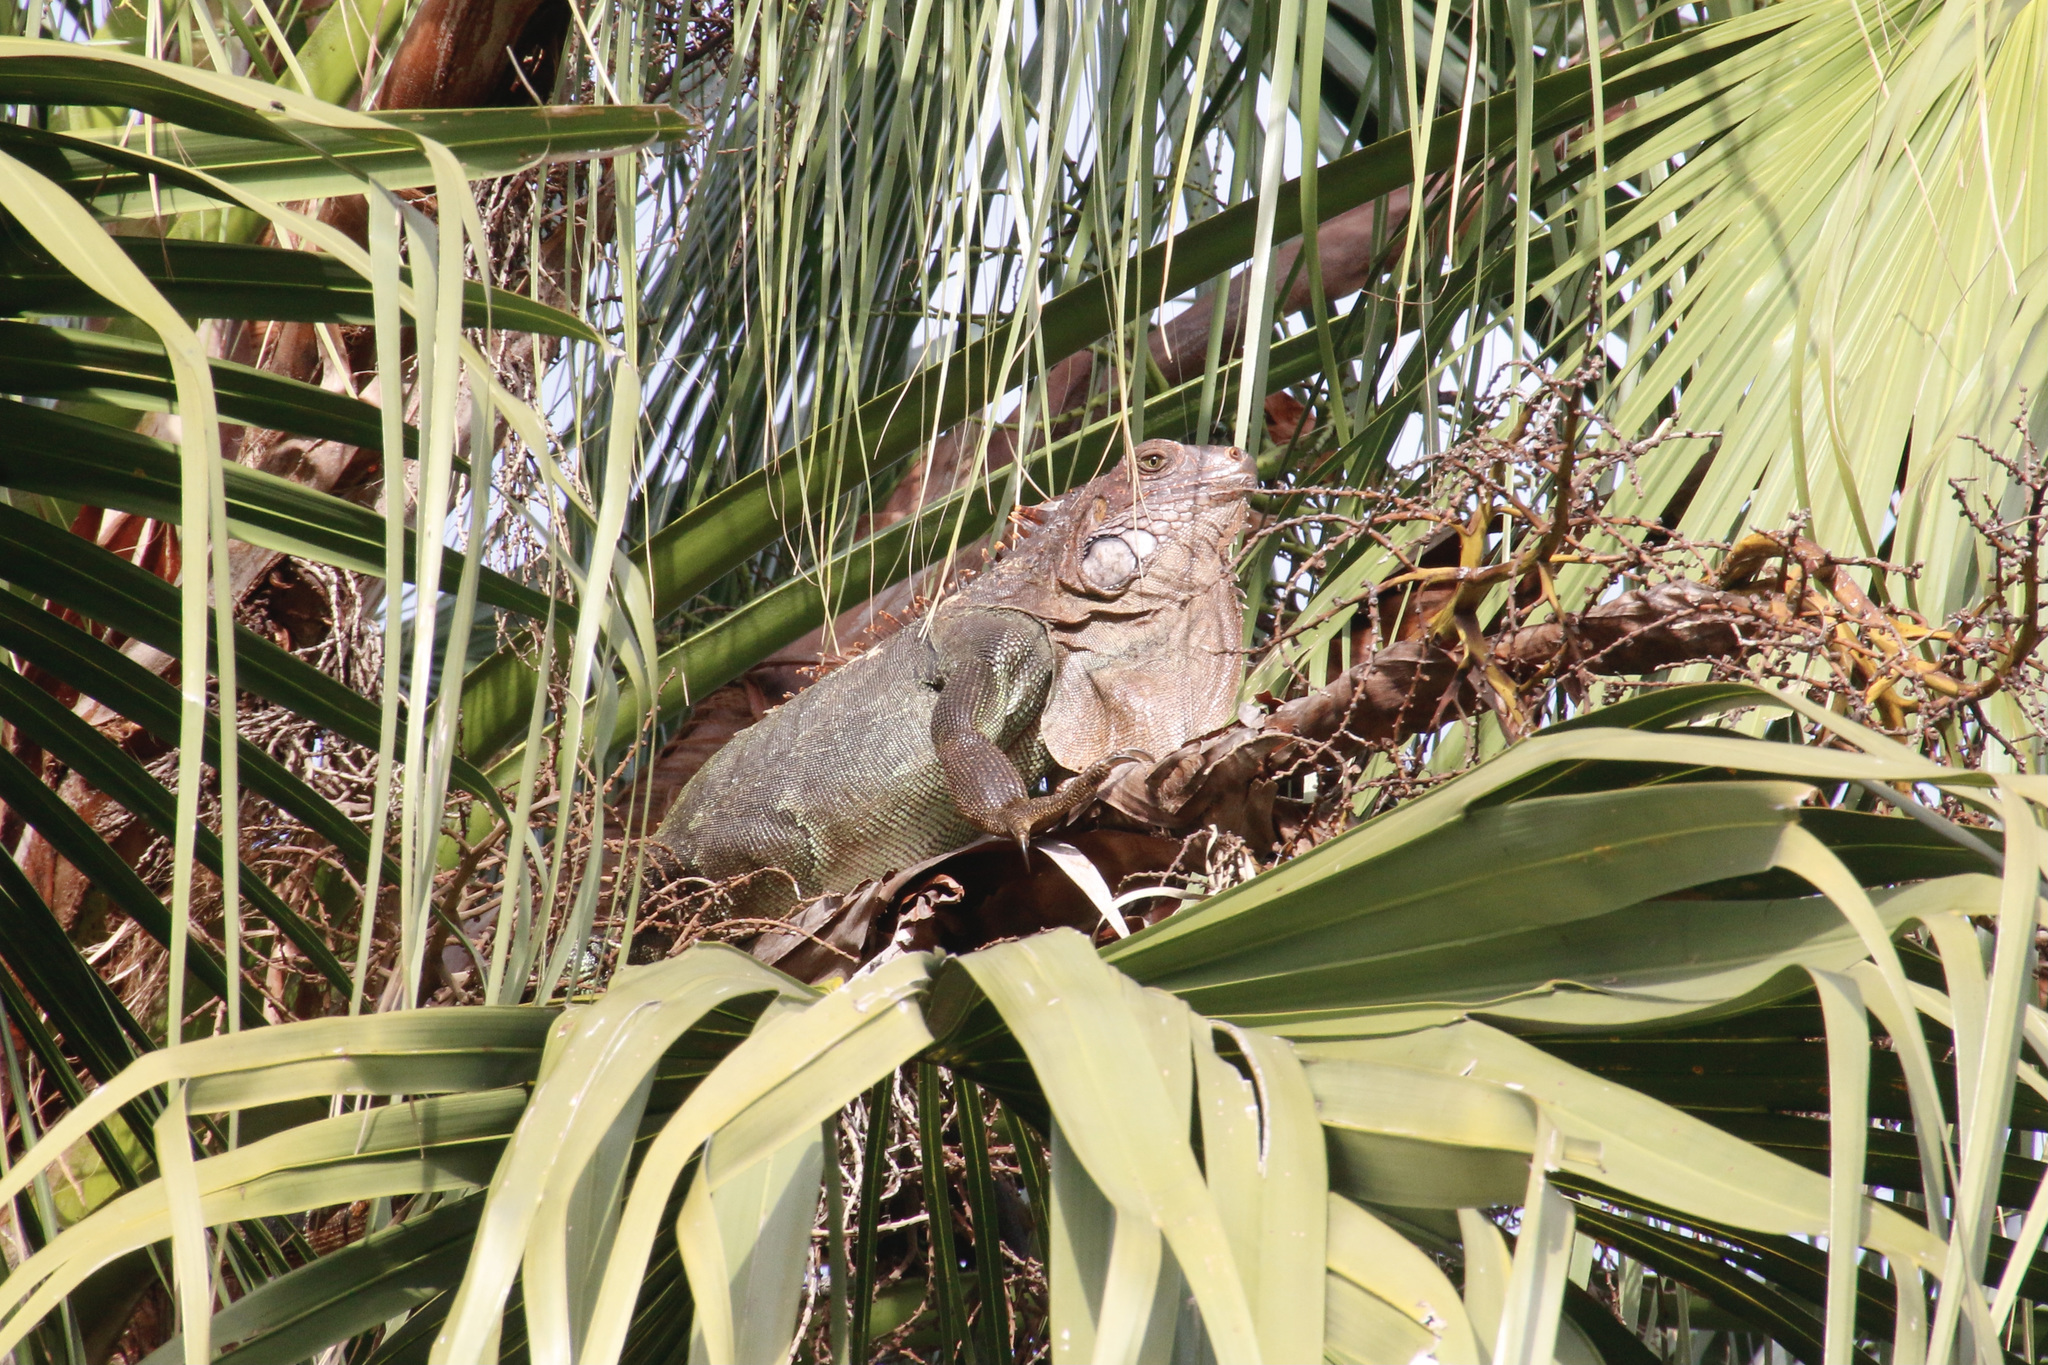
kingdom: Animalia
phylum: Chordata
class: Squamata
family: Iguanidae
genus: Iguana
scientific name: Iguana iguana
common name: Green iguana
